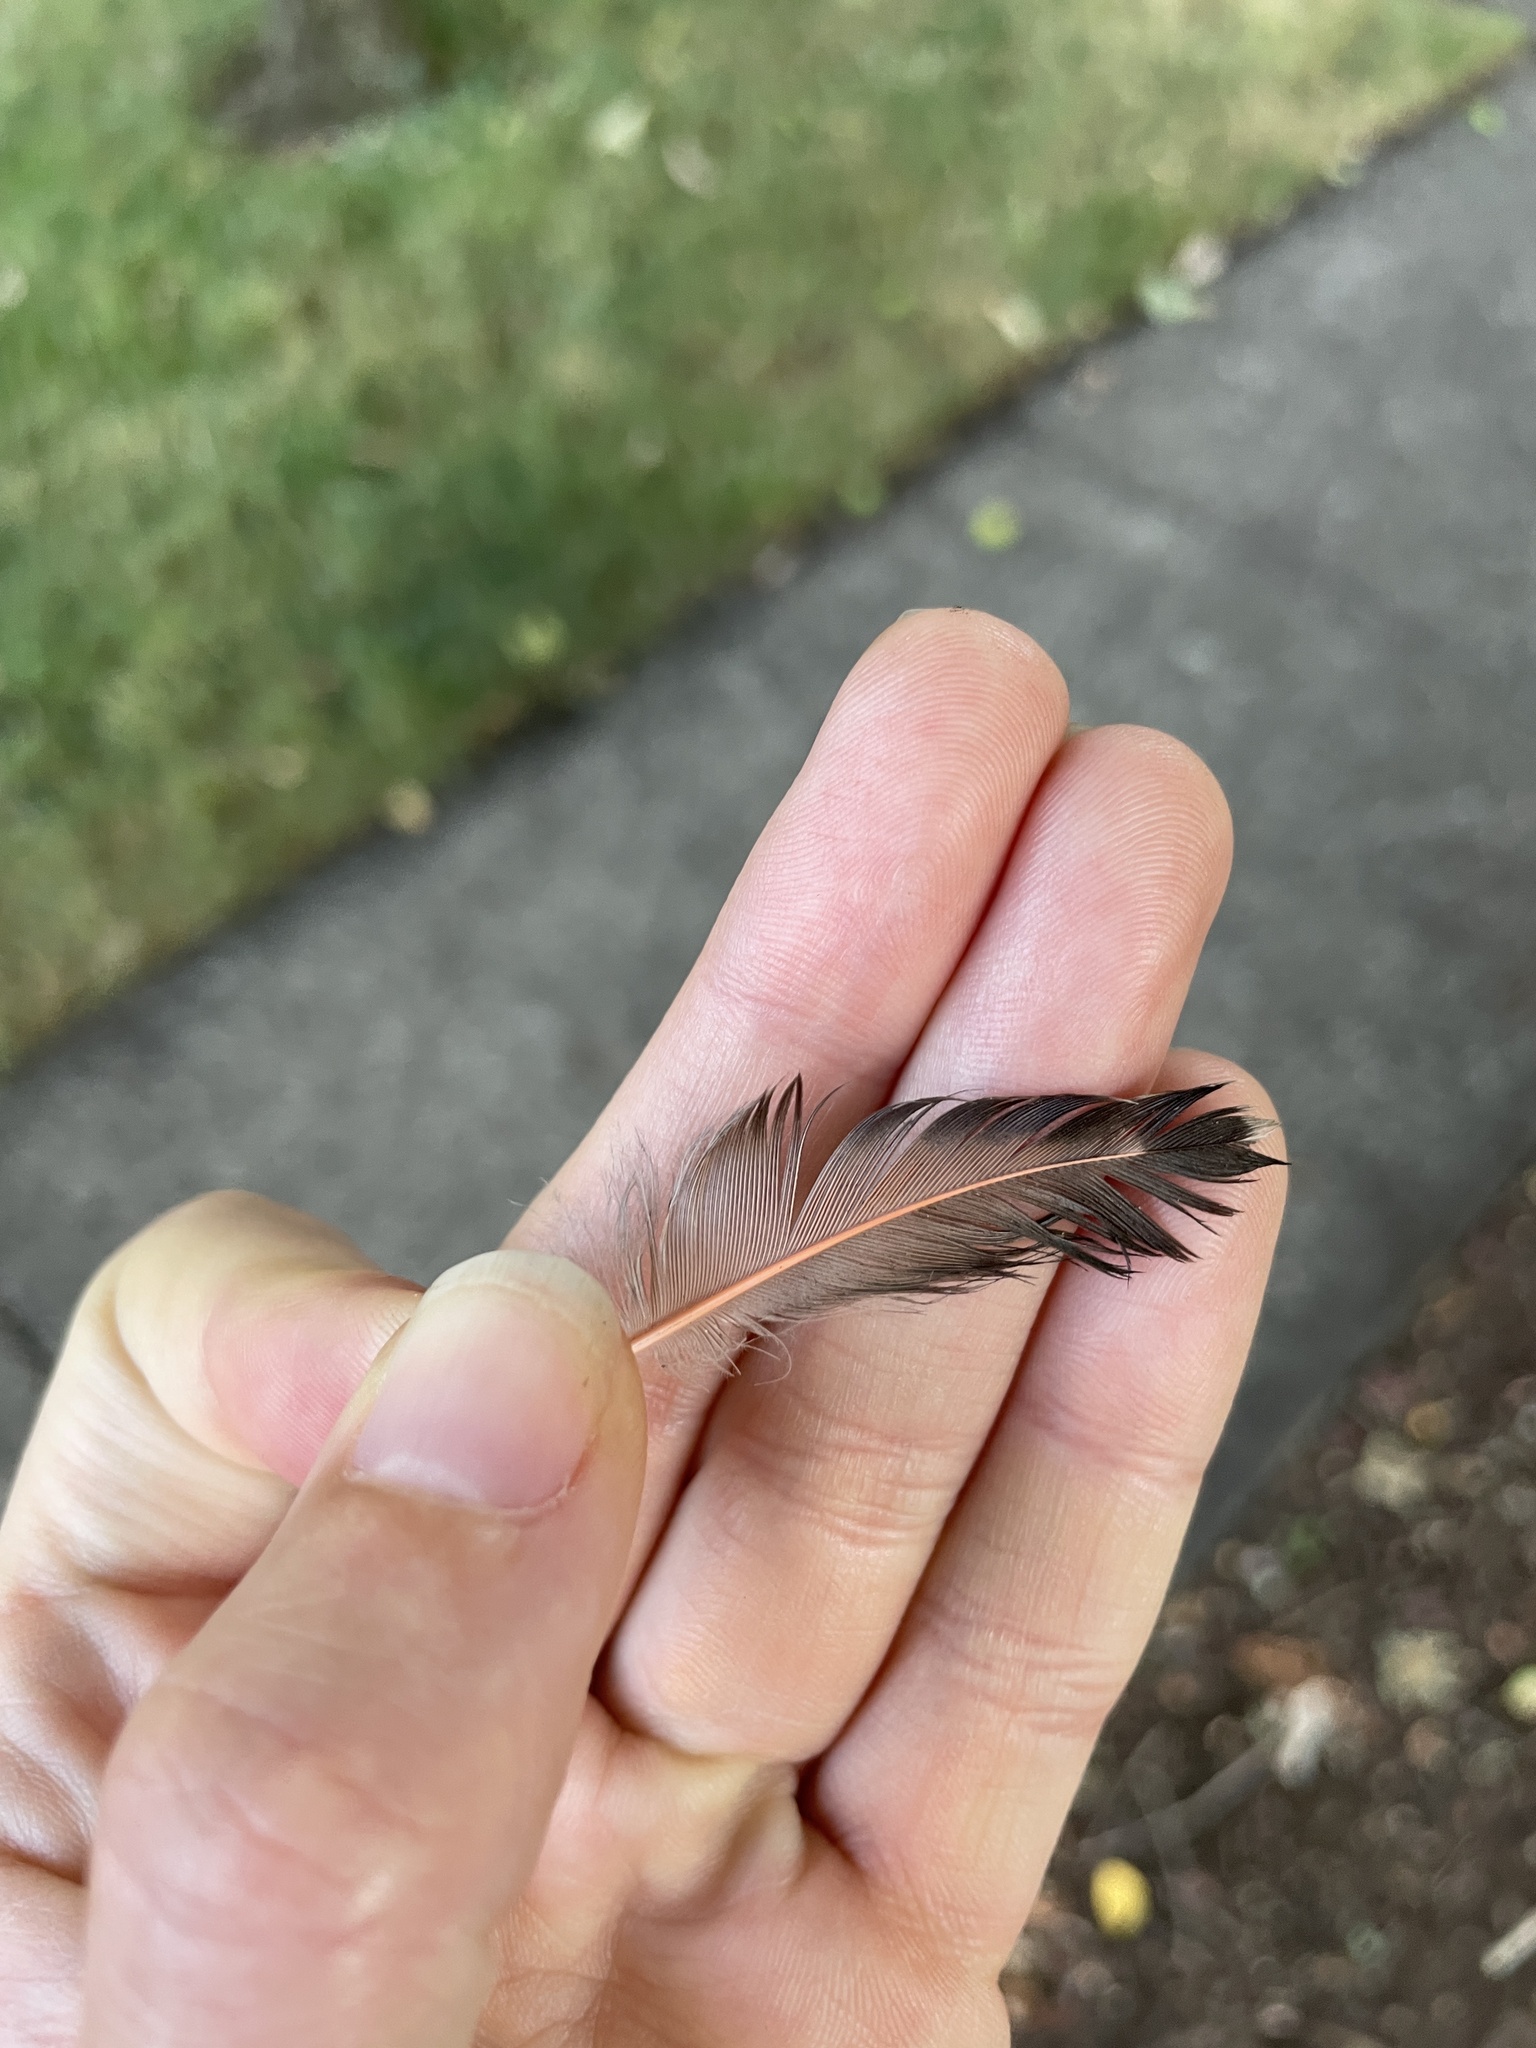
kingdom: Animalia
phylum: Chordata
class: Aves
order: Piciformes
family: Picidae
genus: Colaptes
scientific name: Colaptes auratus
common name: Northern flicker
